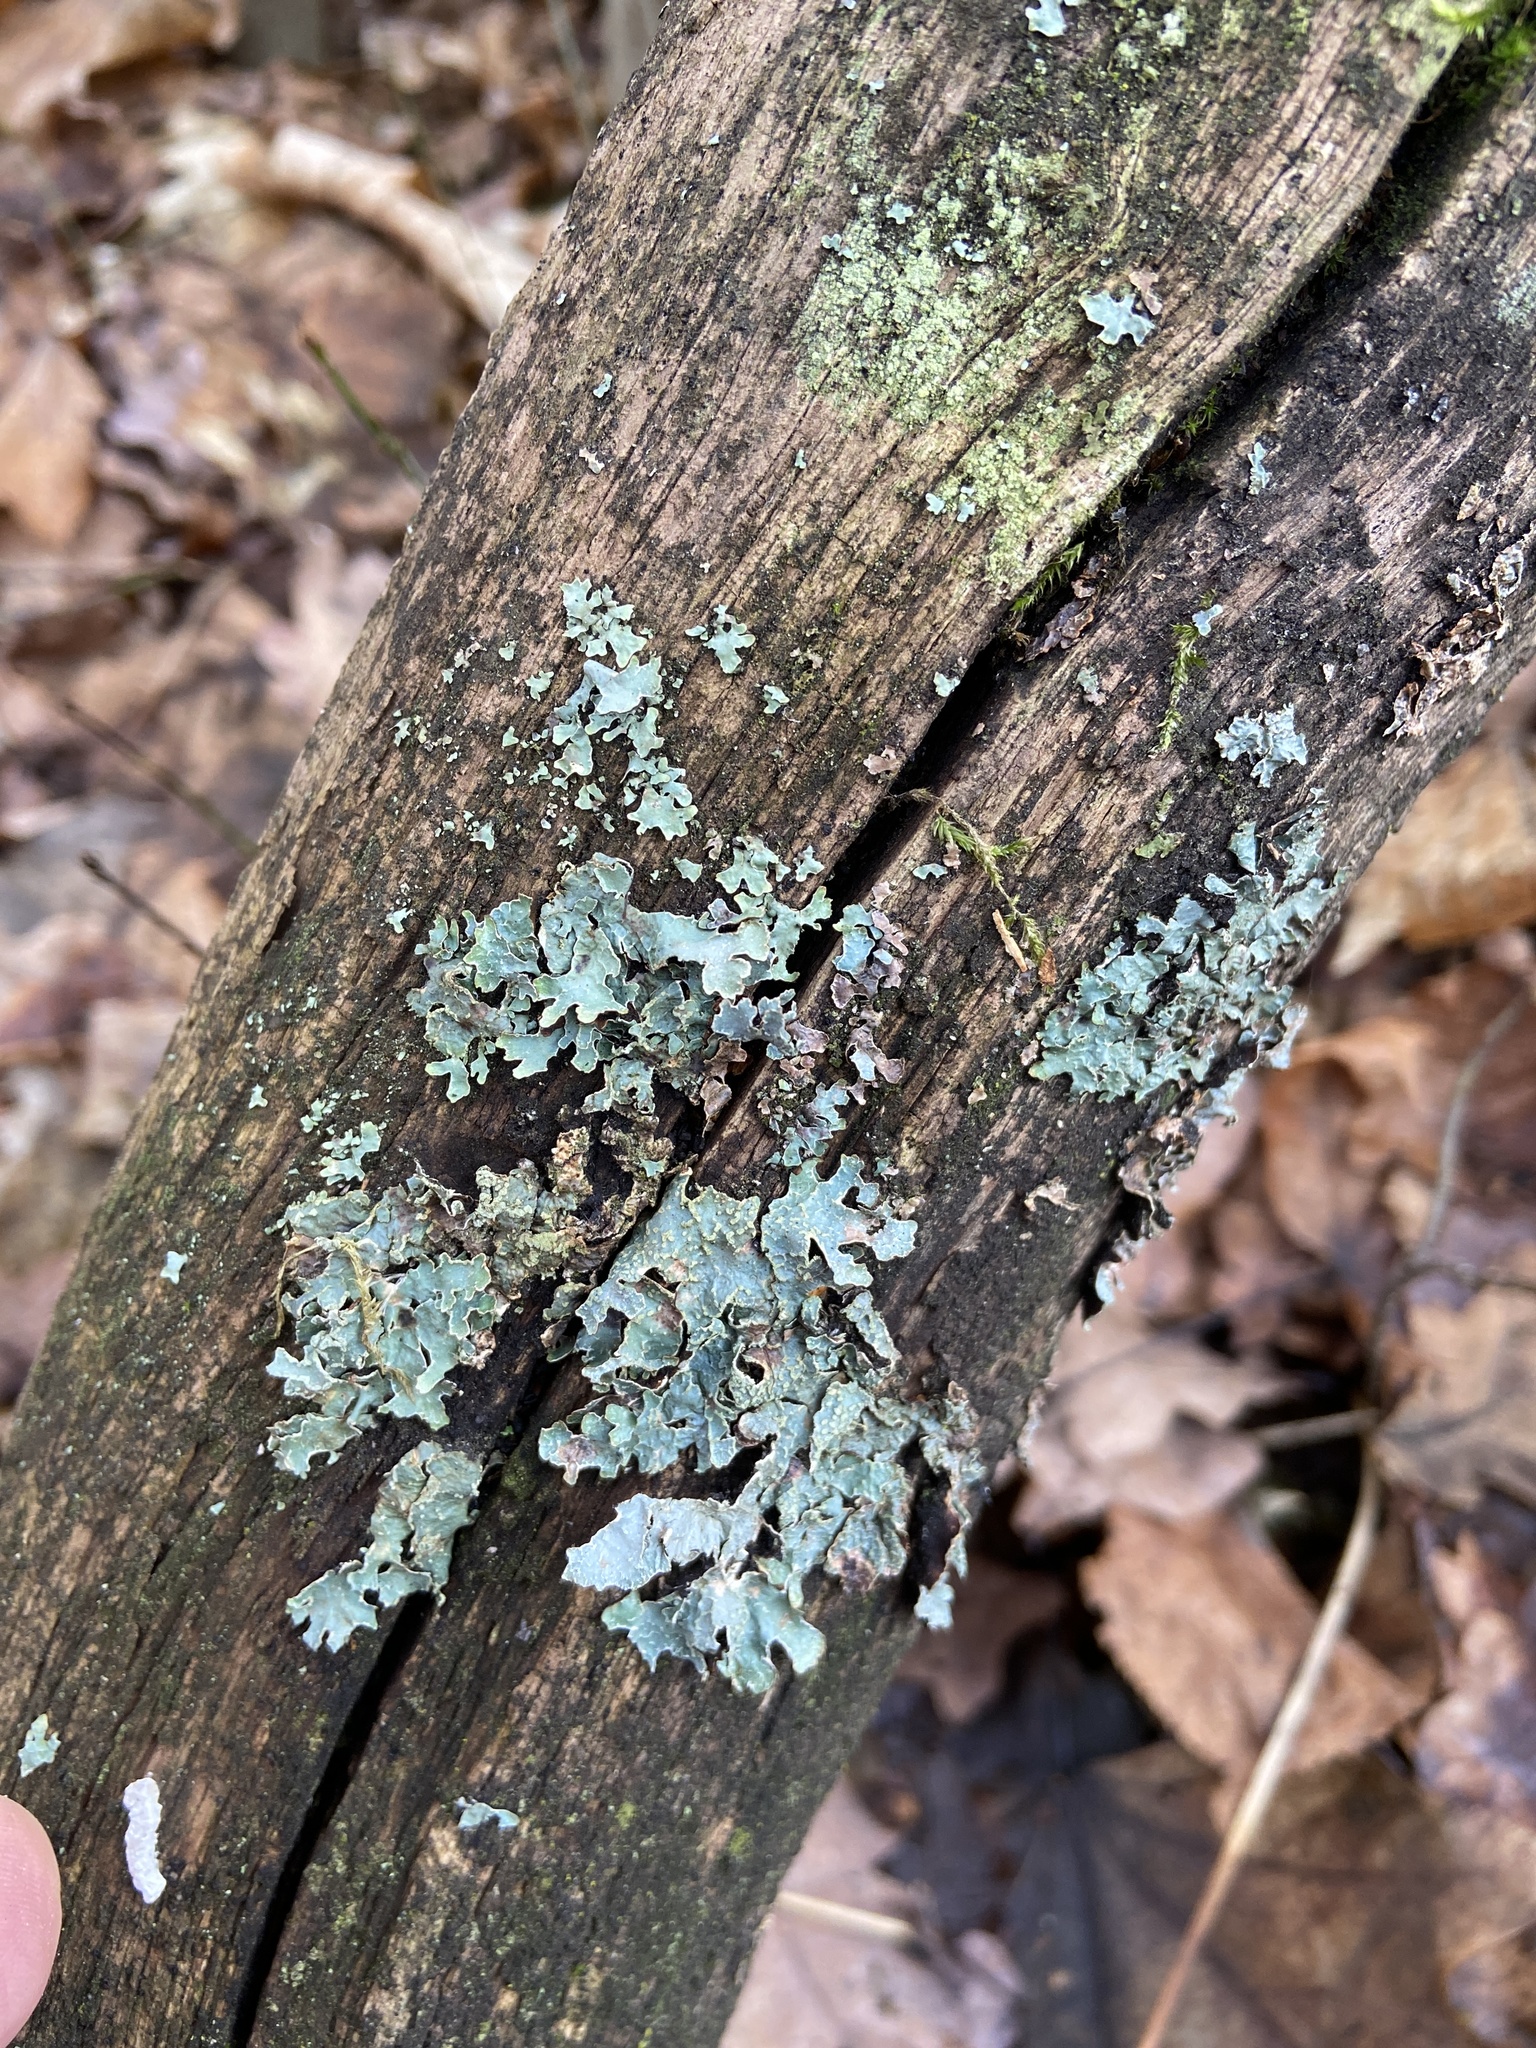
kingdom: Fungi
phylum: Ascomycota
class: Lecanoromycetes
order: Lecanorales
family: Parmeliaceae
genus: Parmelia
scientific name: Parmelia sulcata
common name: Netted shield lichen
